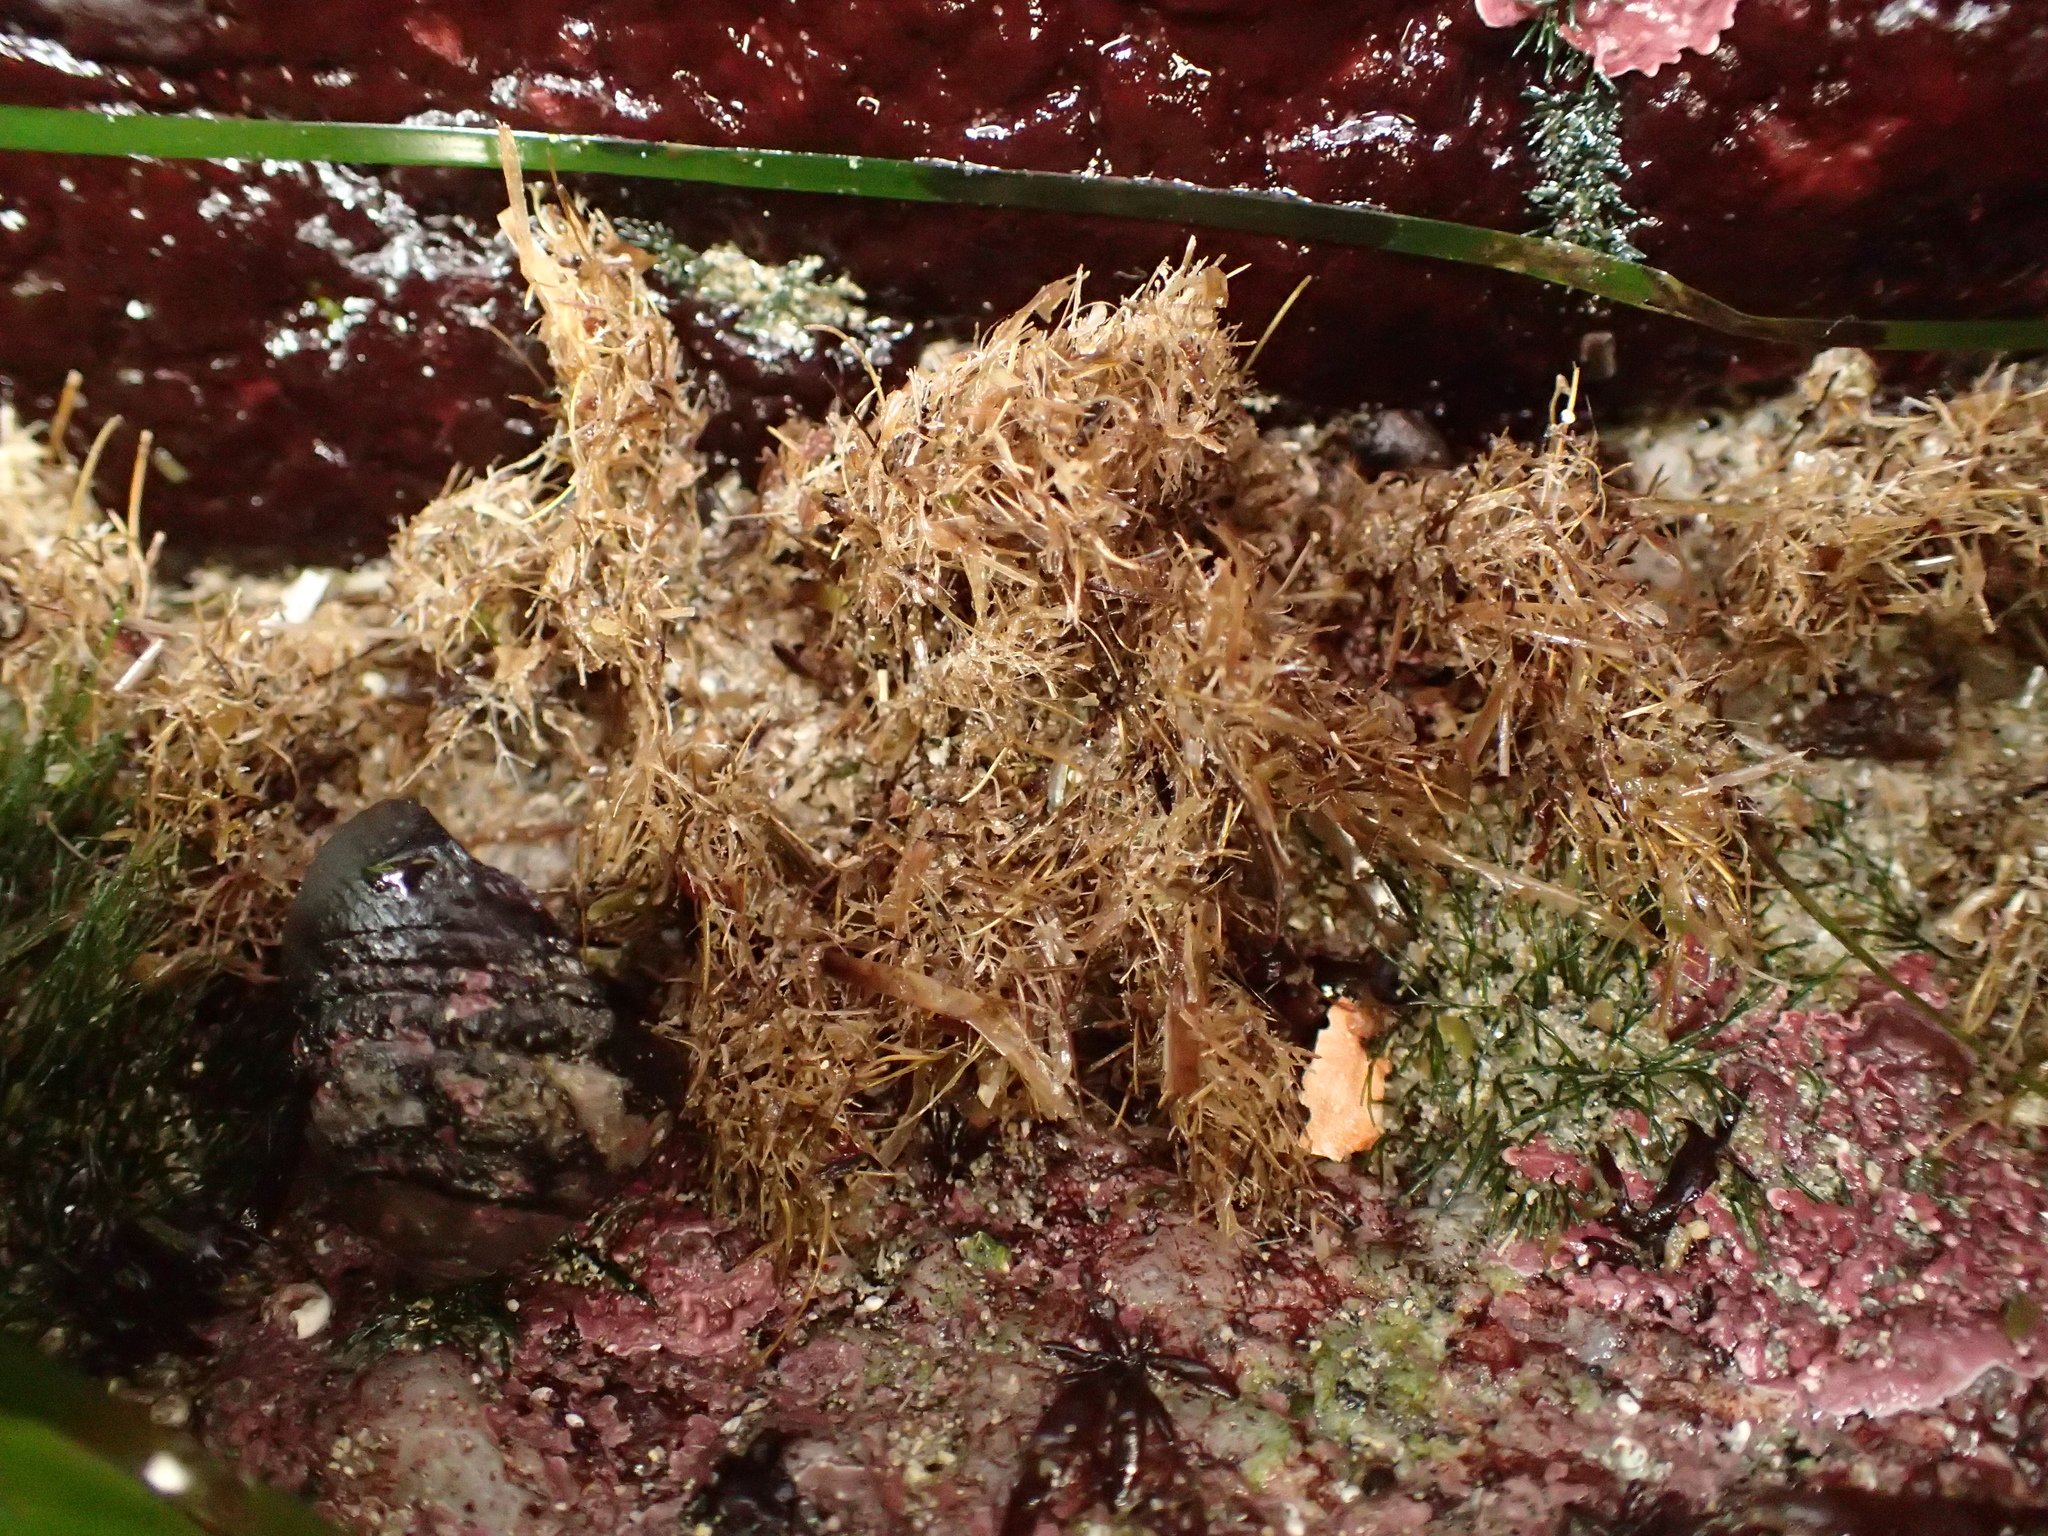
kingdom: Animalia
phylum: Annelida
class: Polychaeta
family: Terebellidae
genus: Pista
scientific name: Pista elongata
